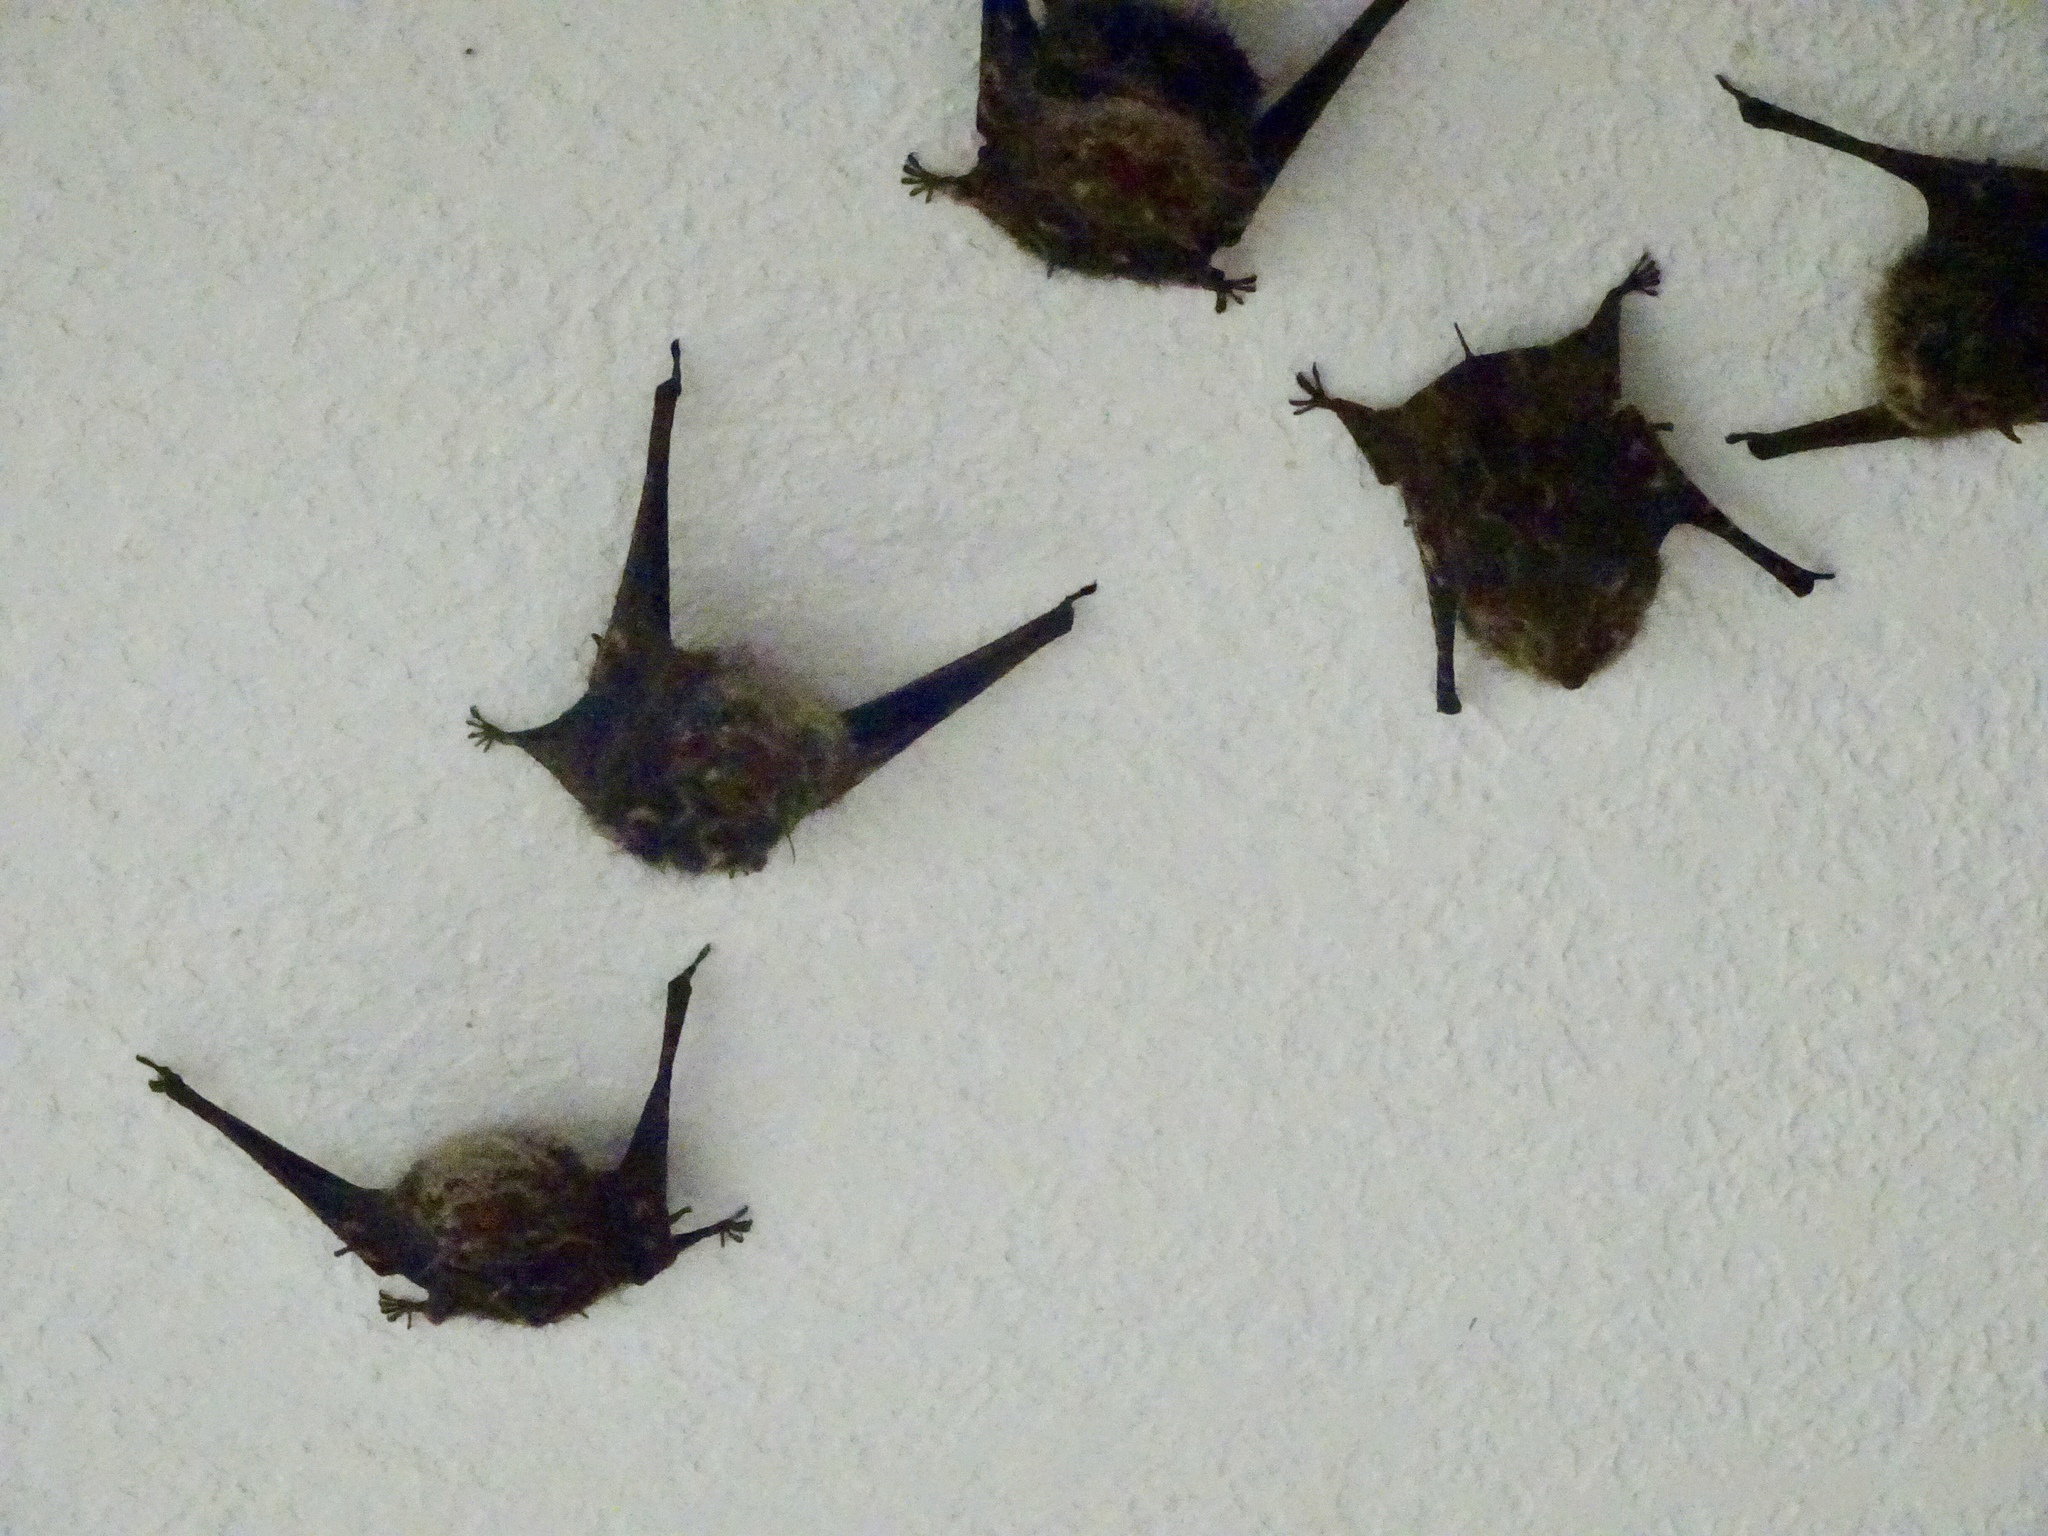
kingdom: Animalia
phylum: Chordata
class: Mammalia
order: Chiroptera
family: Emballonuridae
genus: Rhynchonycteris
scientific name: Rhynchonycteris naso
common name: Proboscis bat
